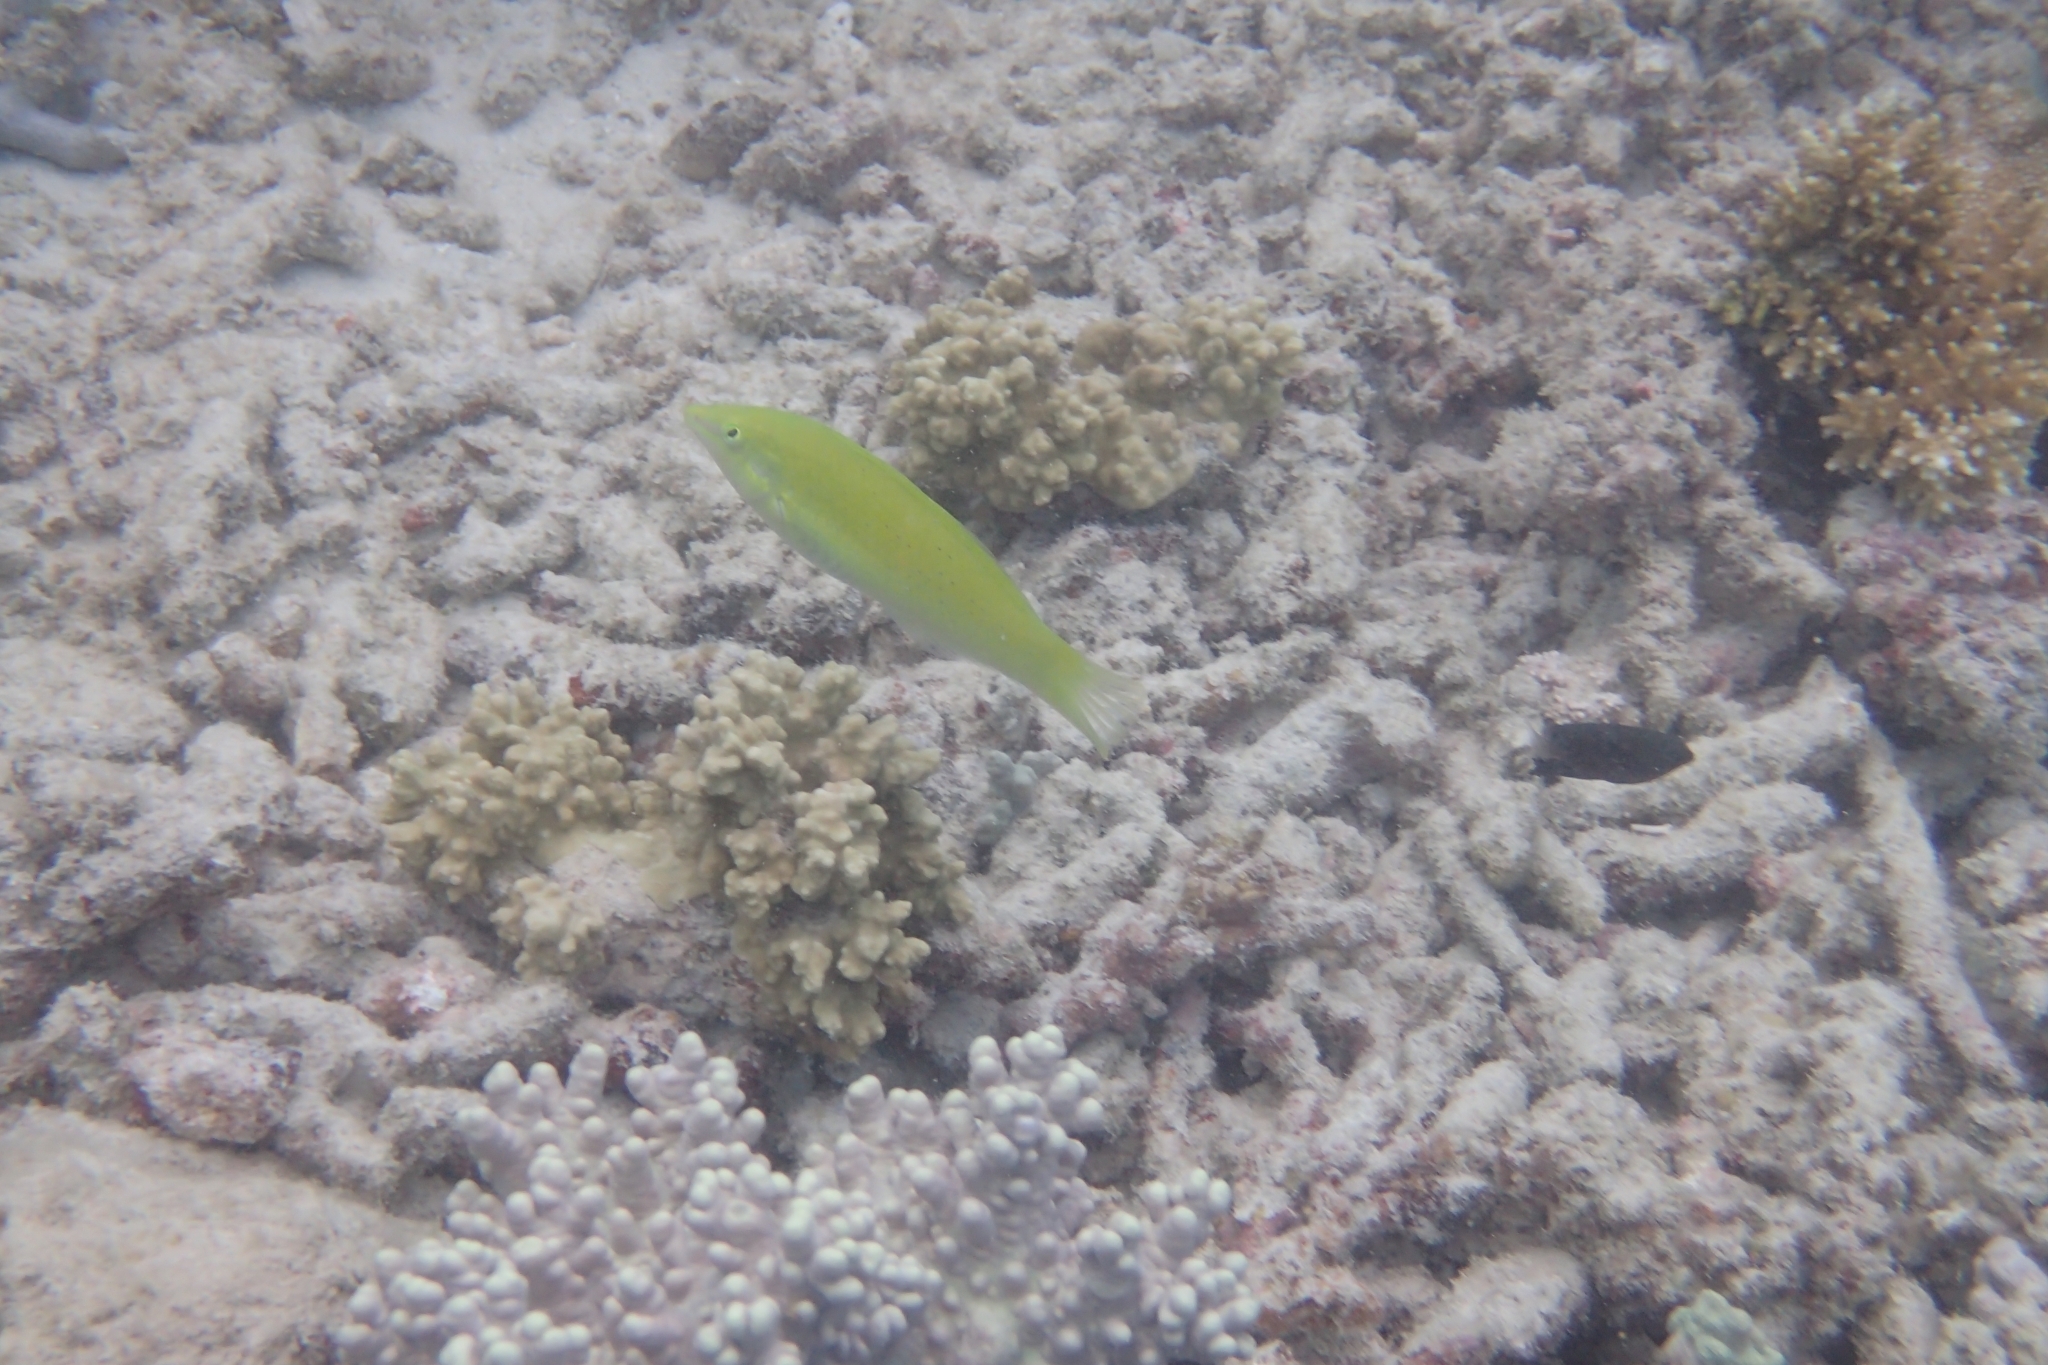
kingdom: Animalia
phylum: Chordata
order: Perciformes
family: Labridae
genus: Halichoeres
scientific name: Halichoeres chloropterus
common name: Pastel-green wrasse
